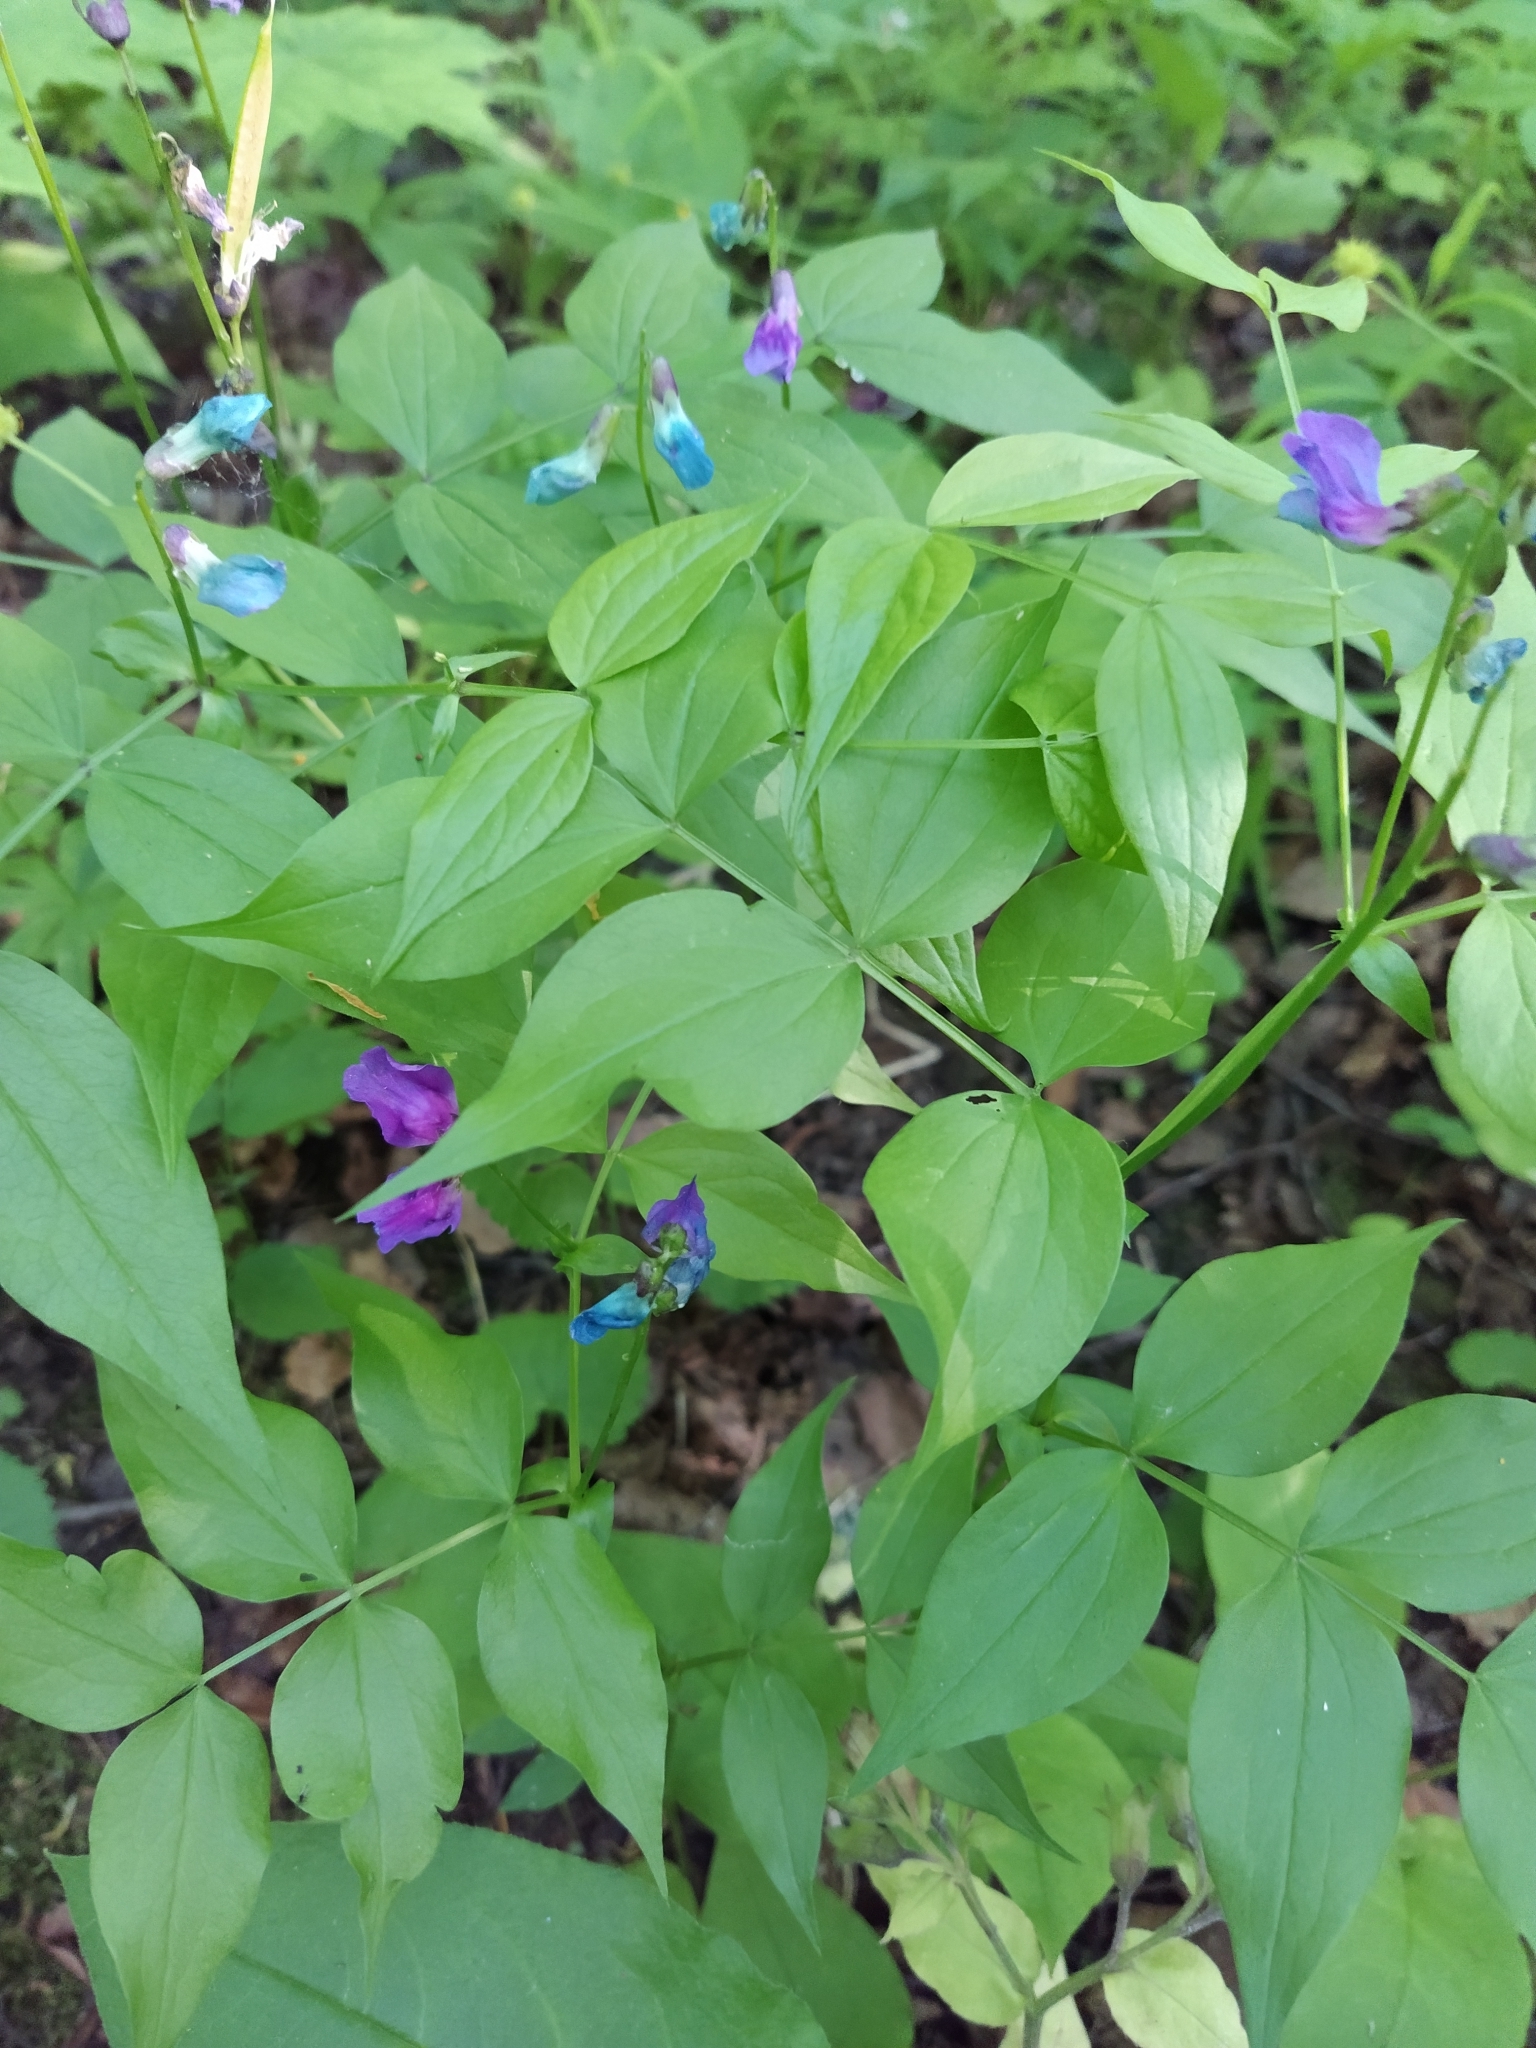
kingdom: Plantae
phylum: Tracheophyta
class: Magnoliopsida
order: Fabales
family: Fabaceae
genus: Lathyrus
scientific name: Lathyrus vernus
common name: Spring pea
